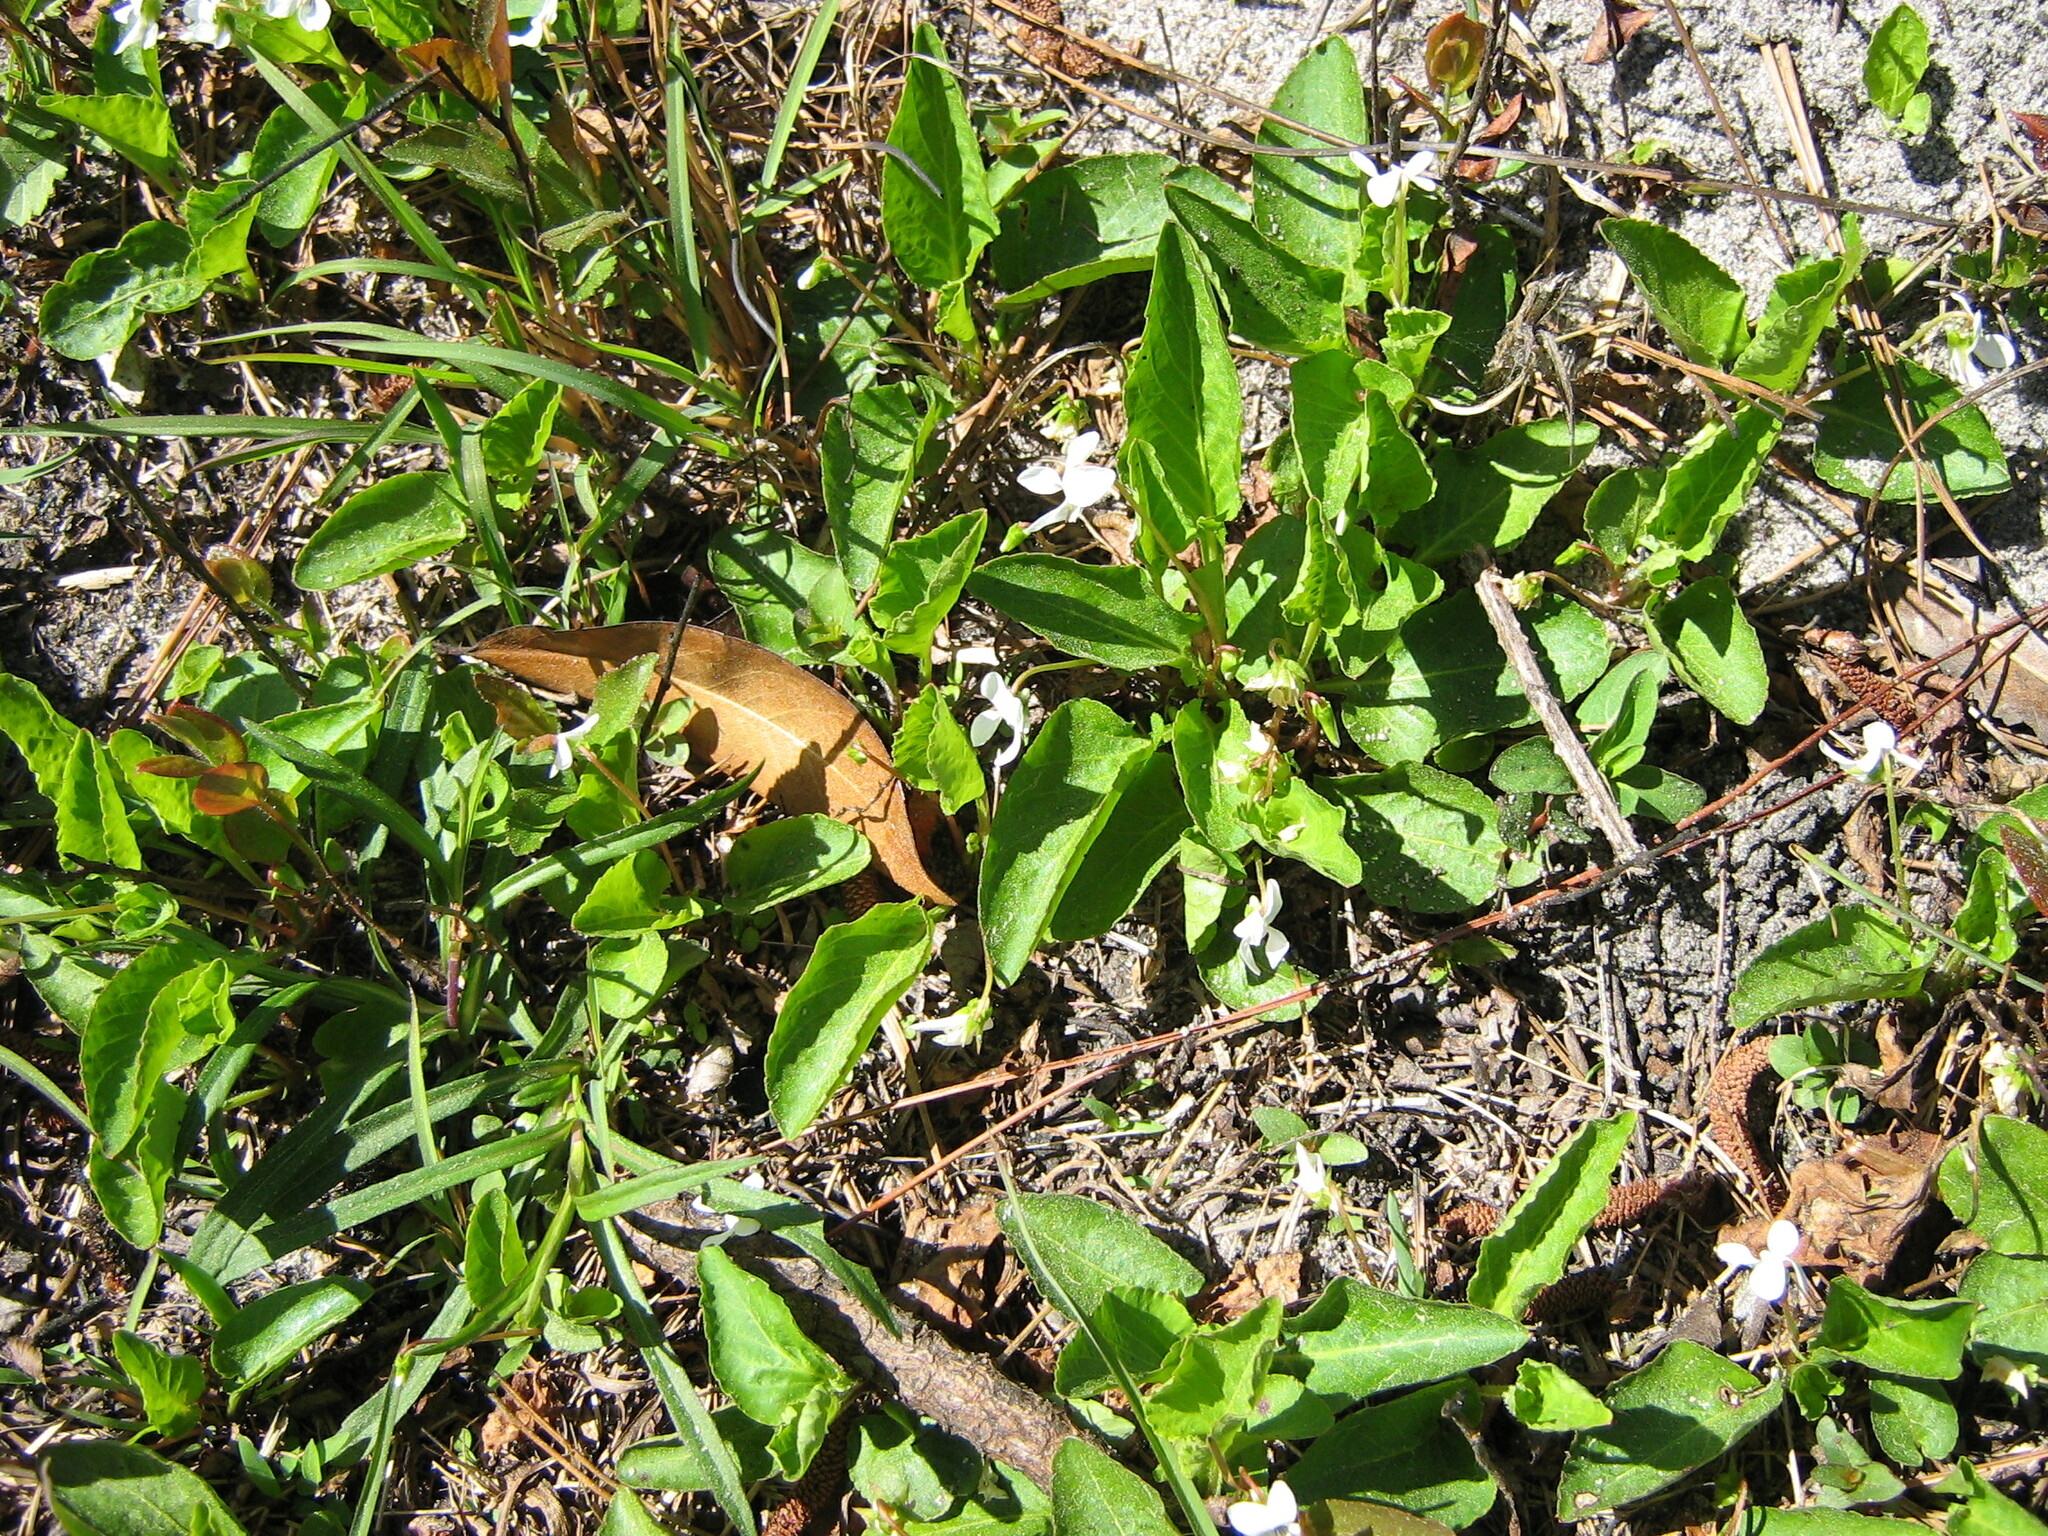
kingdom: Plantae
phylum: Tracheophyta
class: Magnoliopsida
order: Malpighiales
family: Violaceae
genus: Viola
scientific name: Viola primulifolia
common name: Primrose-leaf violet
